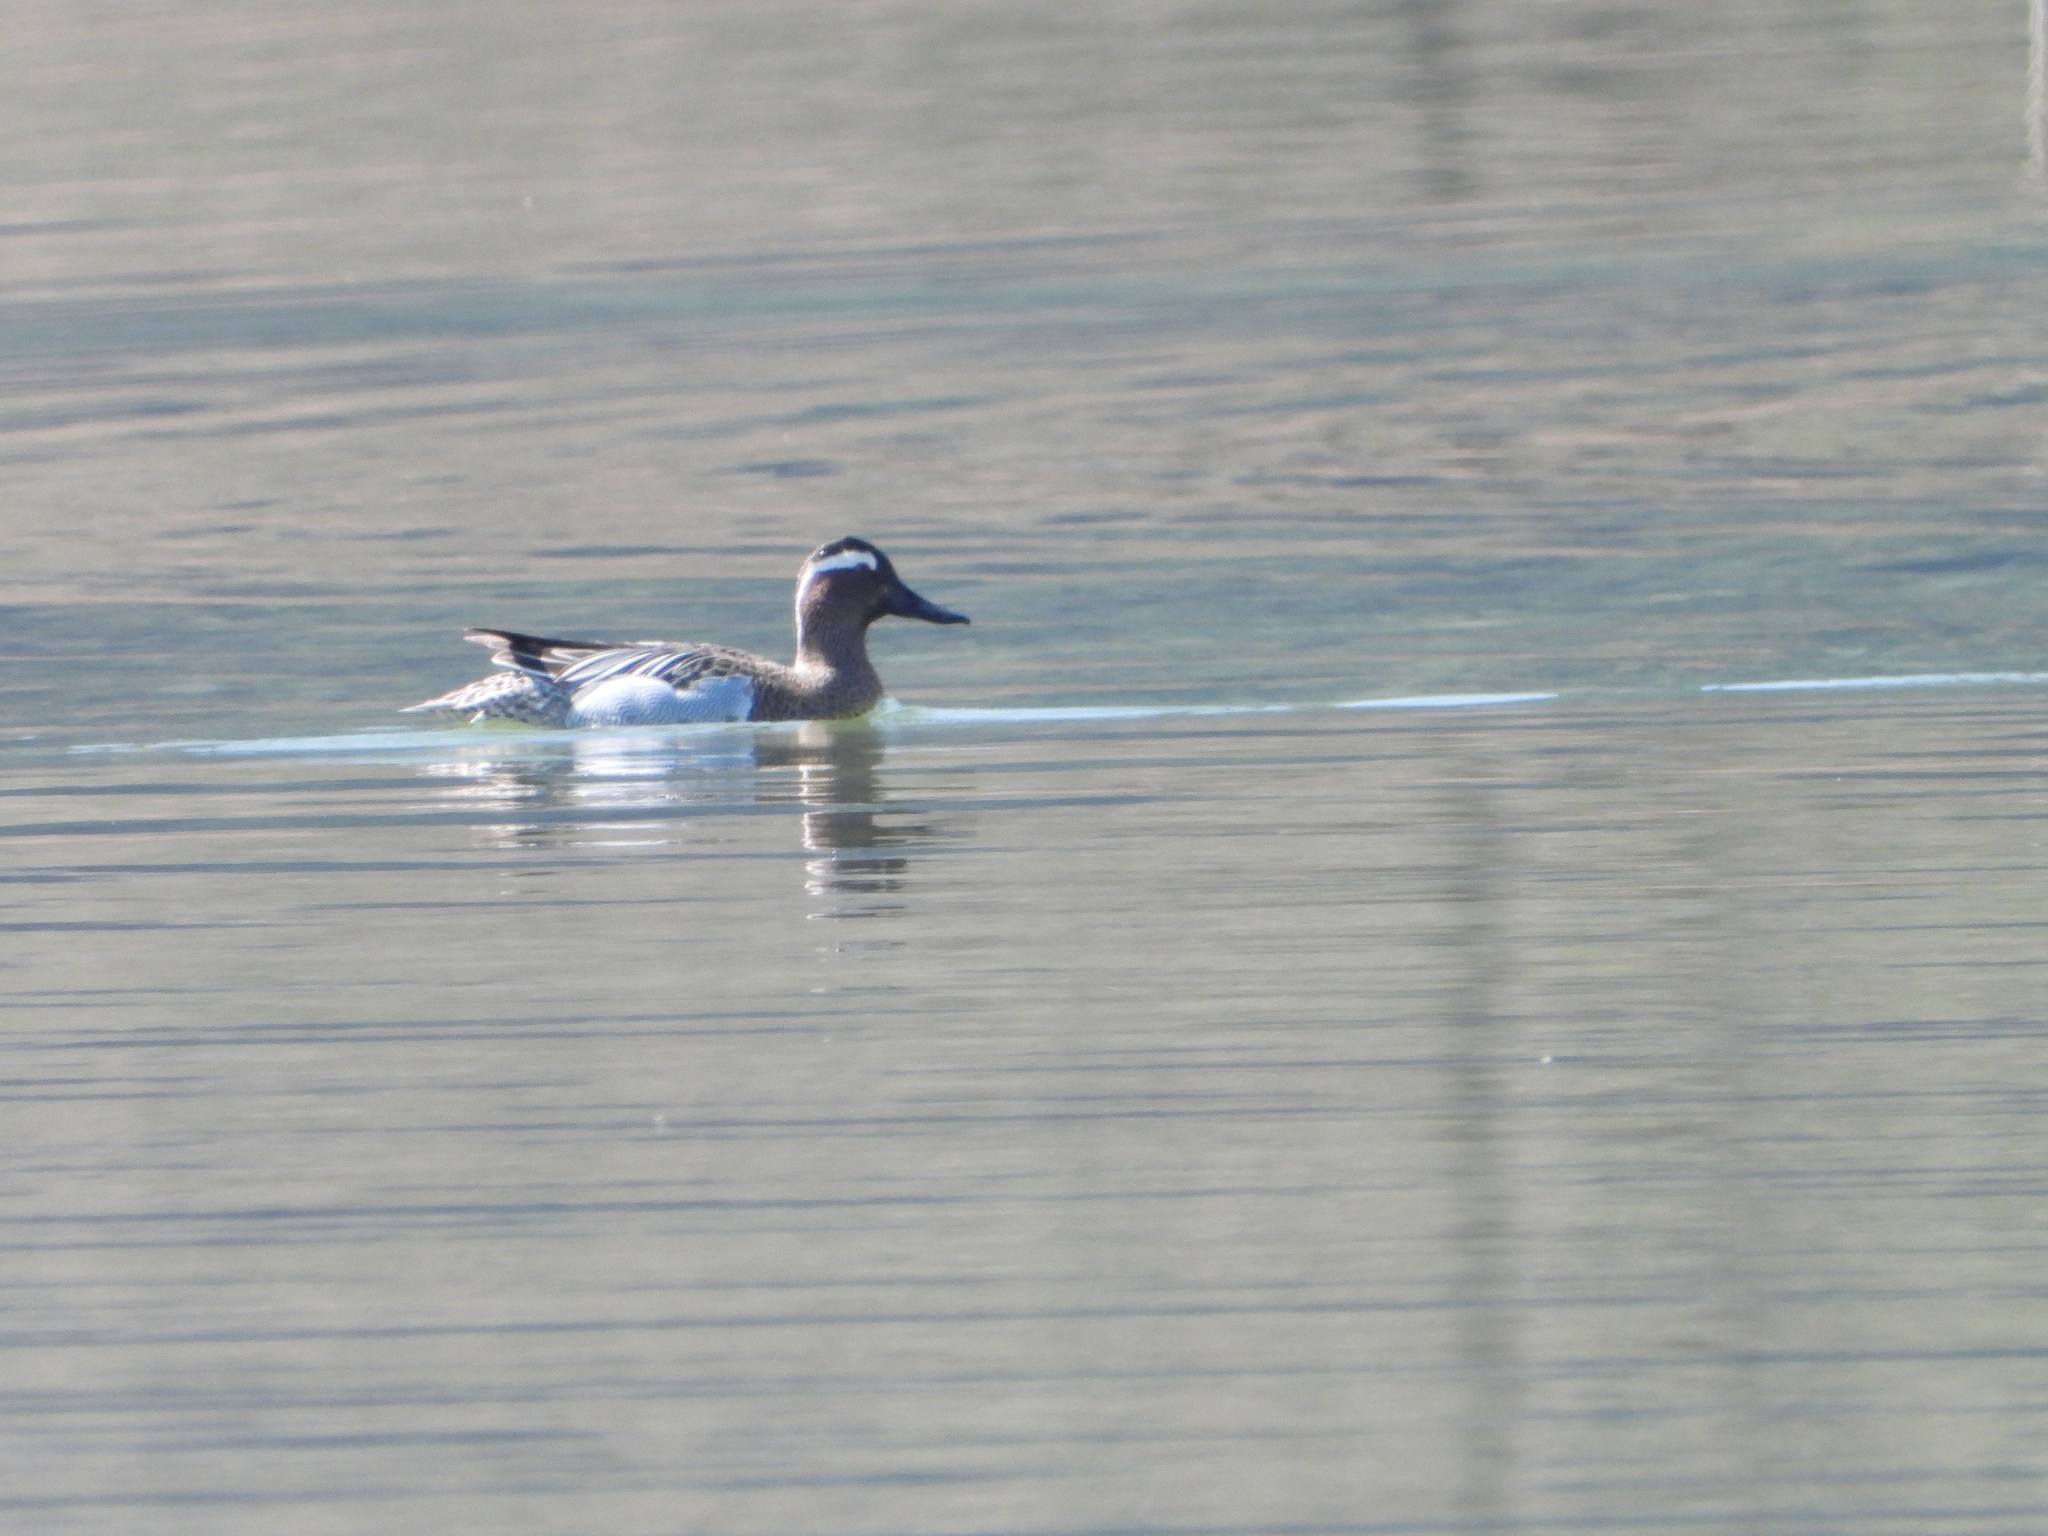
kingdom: Animalia
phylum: Chordata
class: Aves
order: Anseriformes
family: Anatidae
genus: Spatula
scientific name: Spatula querquedula
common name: Garganey
